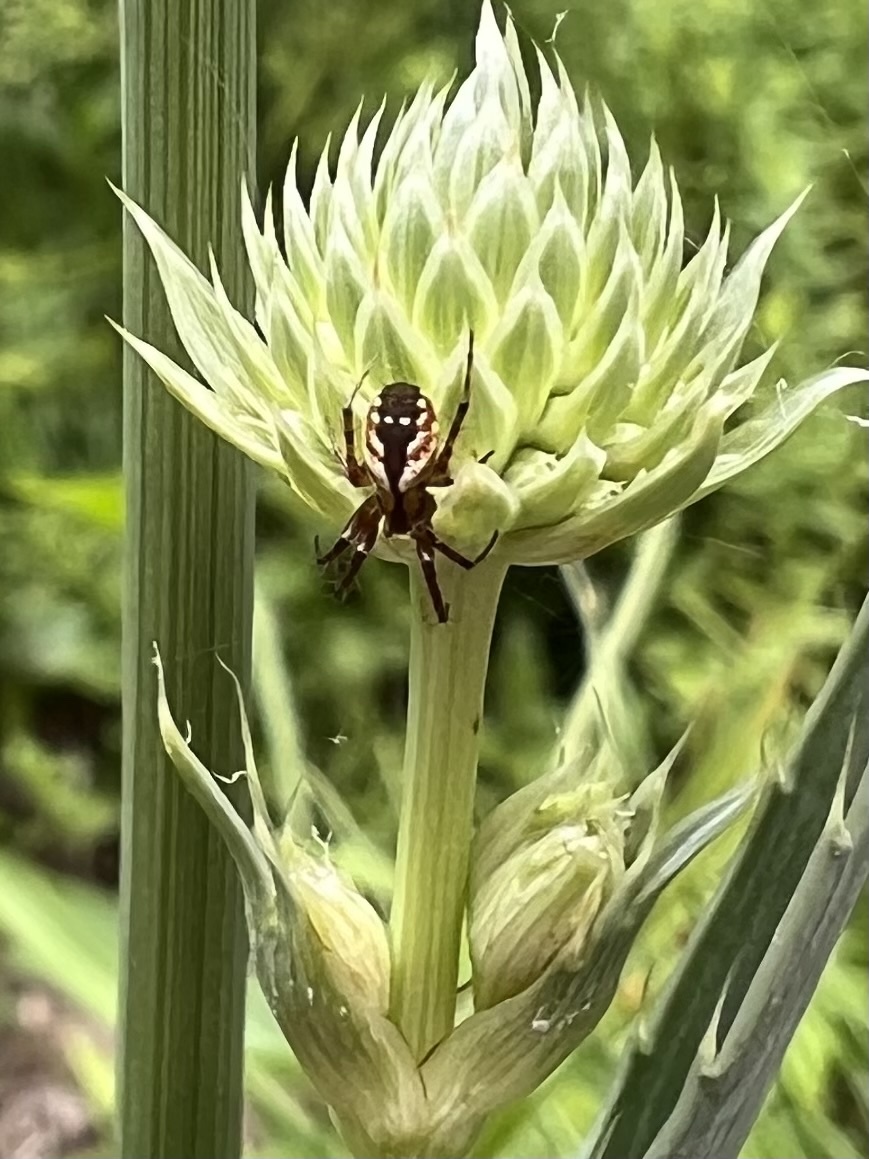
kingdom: Animalia
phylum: Arthropoda
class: Arachnida
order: Araneae
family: Araneidae
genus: Mangora
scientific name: Mangora placida
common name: Tuft-legged orbweaver
